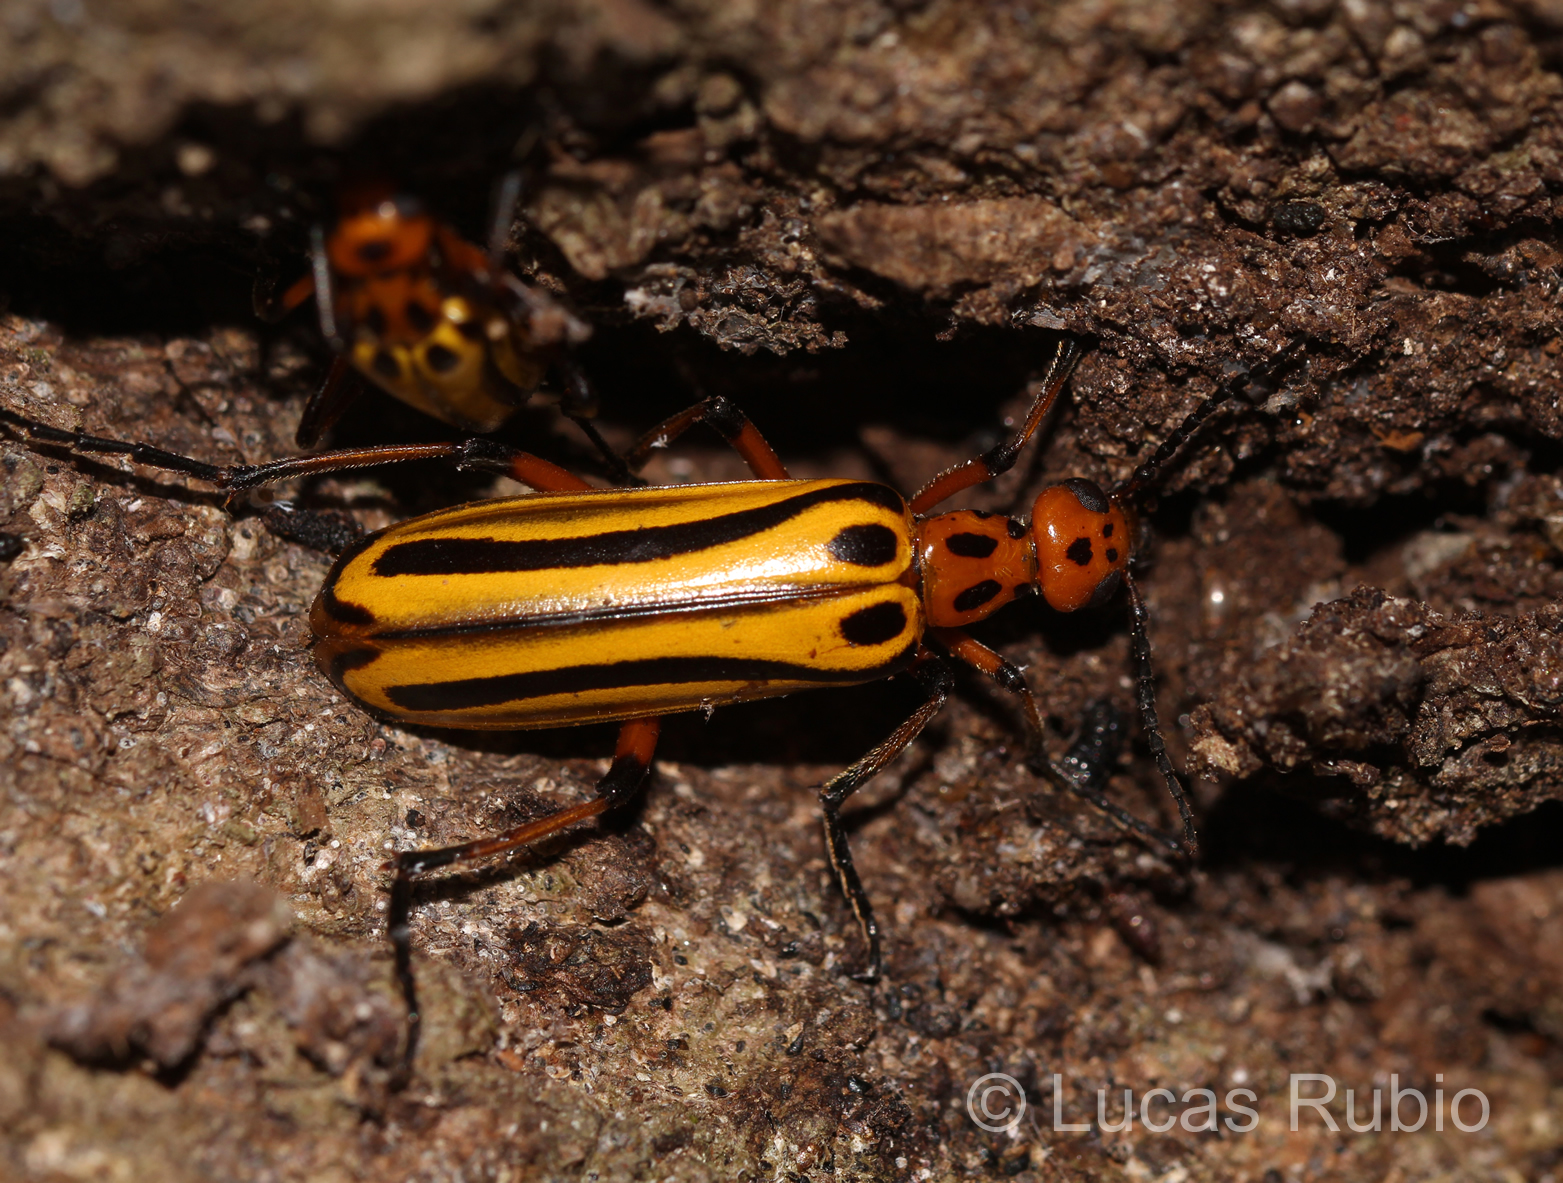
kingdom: Animalia
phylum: Arthropoda
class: Insecta
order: Coleoptera
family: Meloidae
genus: Pyrota
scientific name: Pyrota
